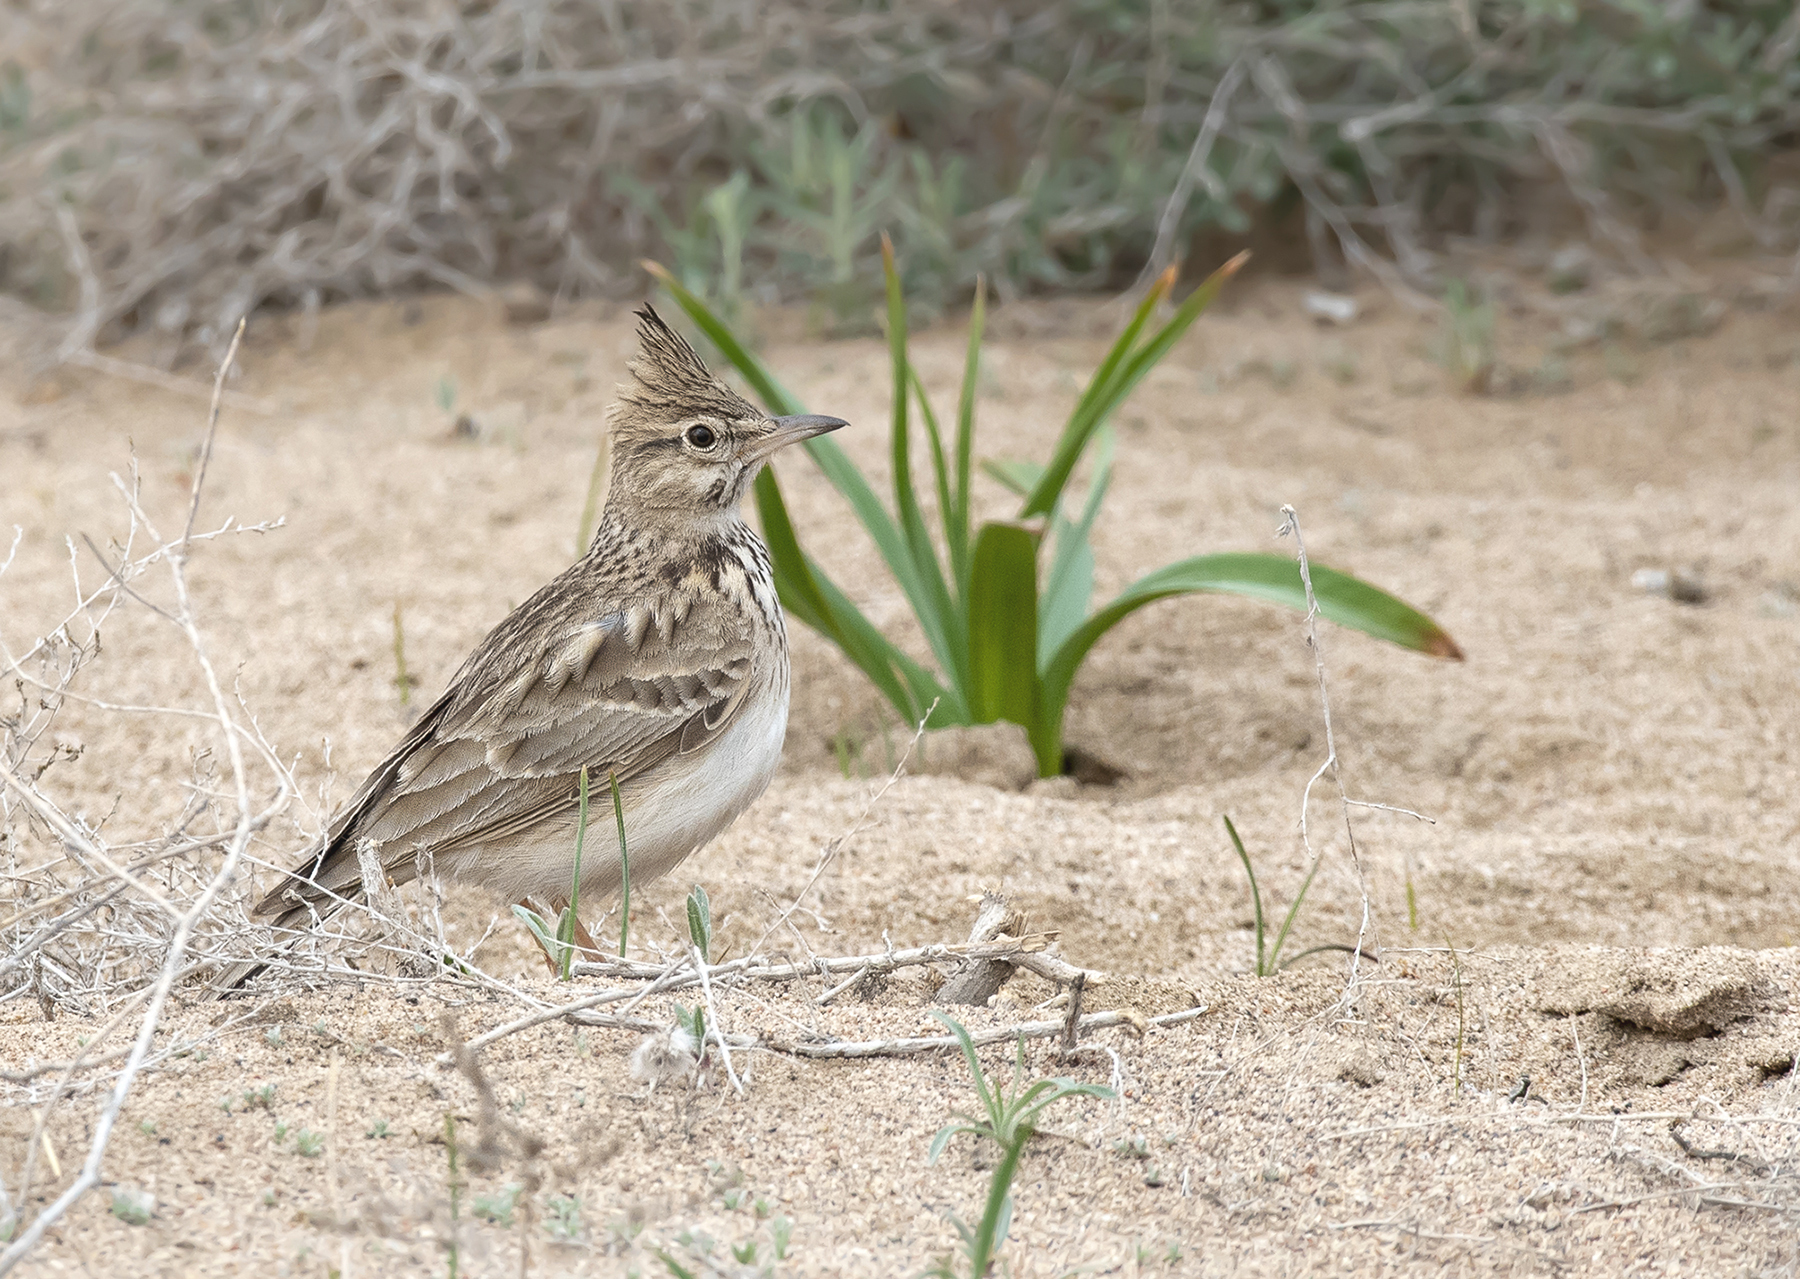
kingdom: Animalia
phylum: Chordata
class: Aves
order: Passeriformes
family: Alaudidae
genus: Galerida
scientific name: Galerida cristata
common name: Crested lark
